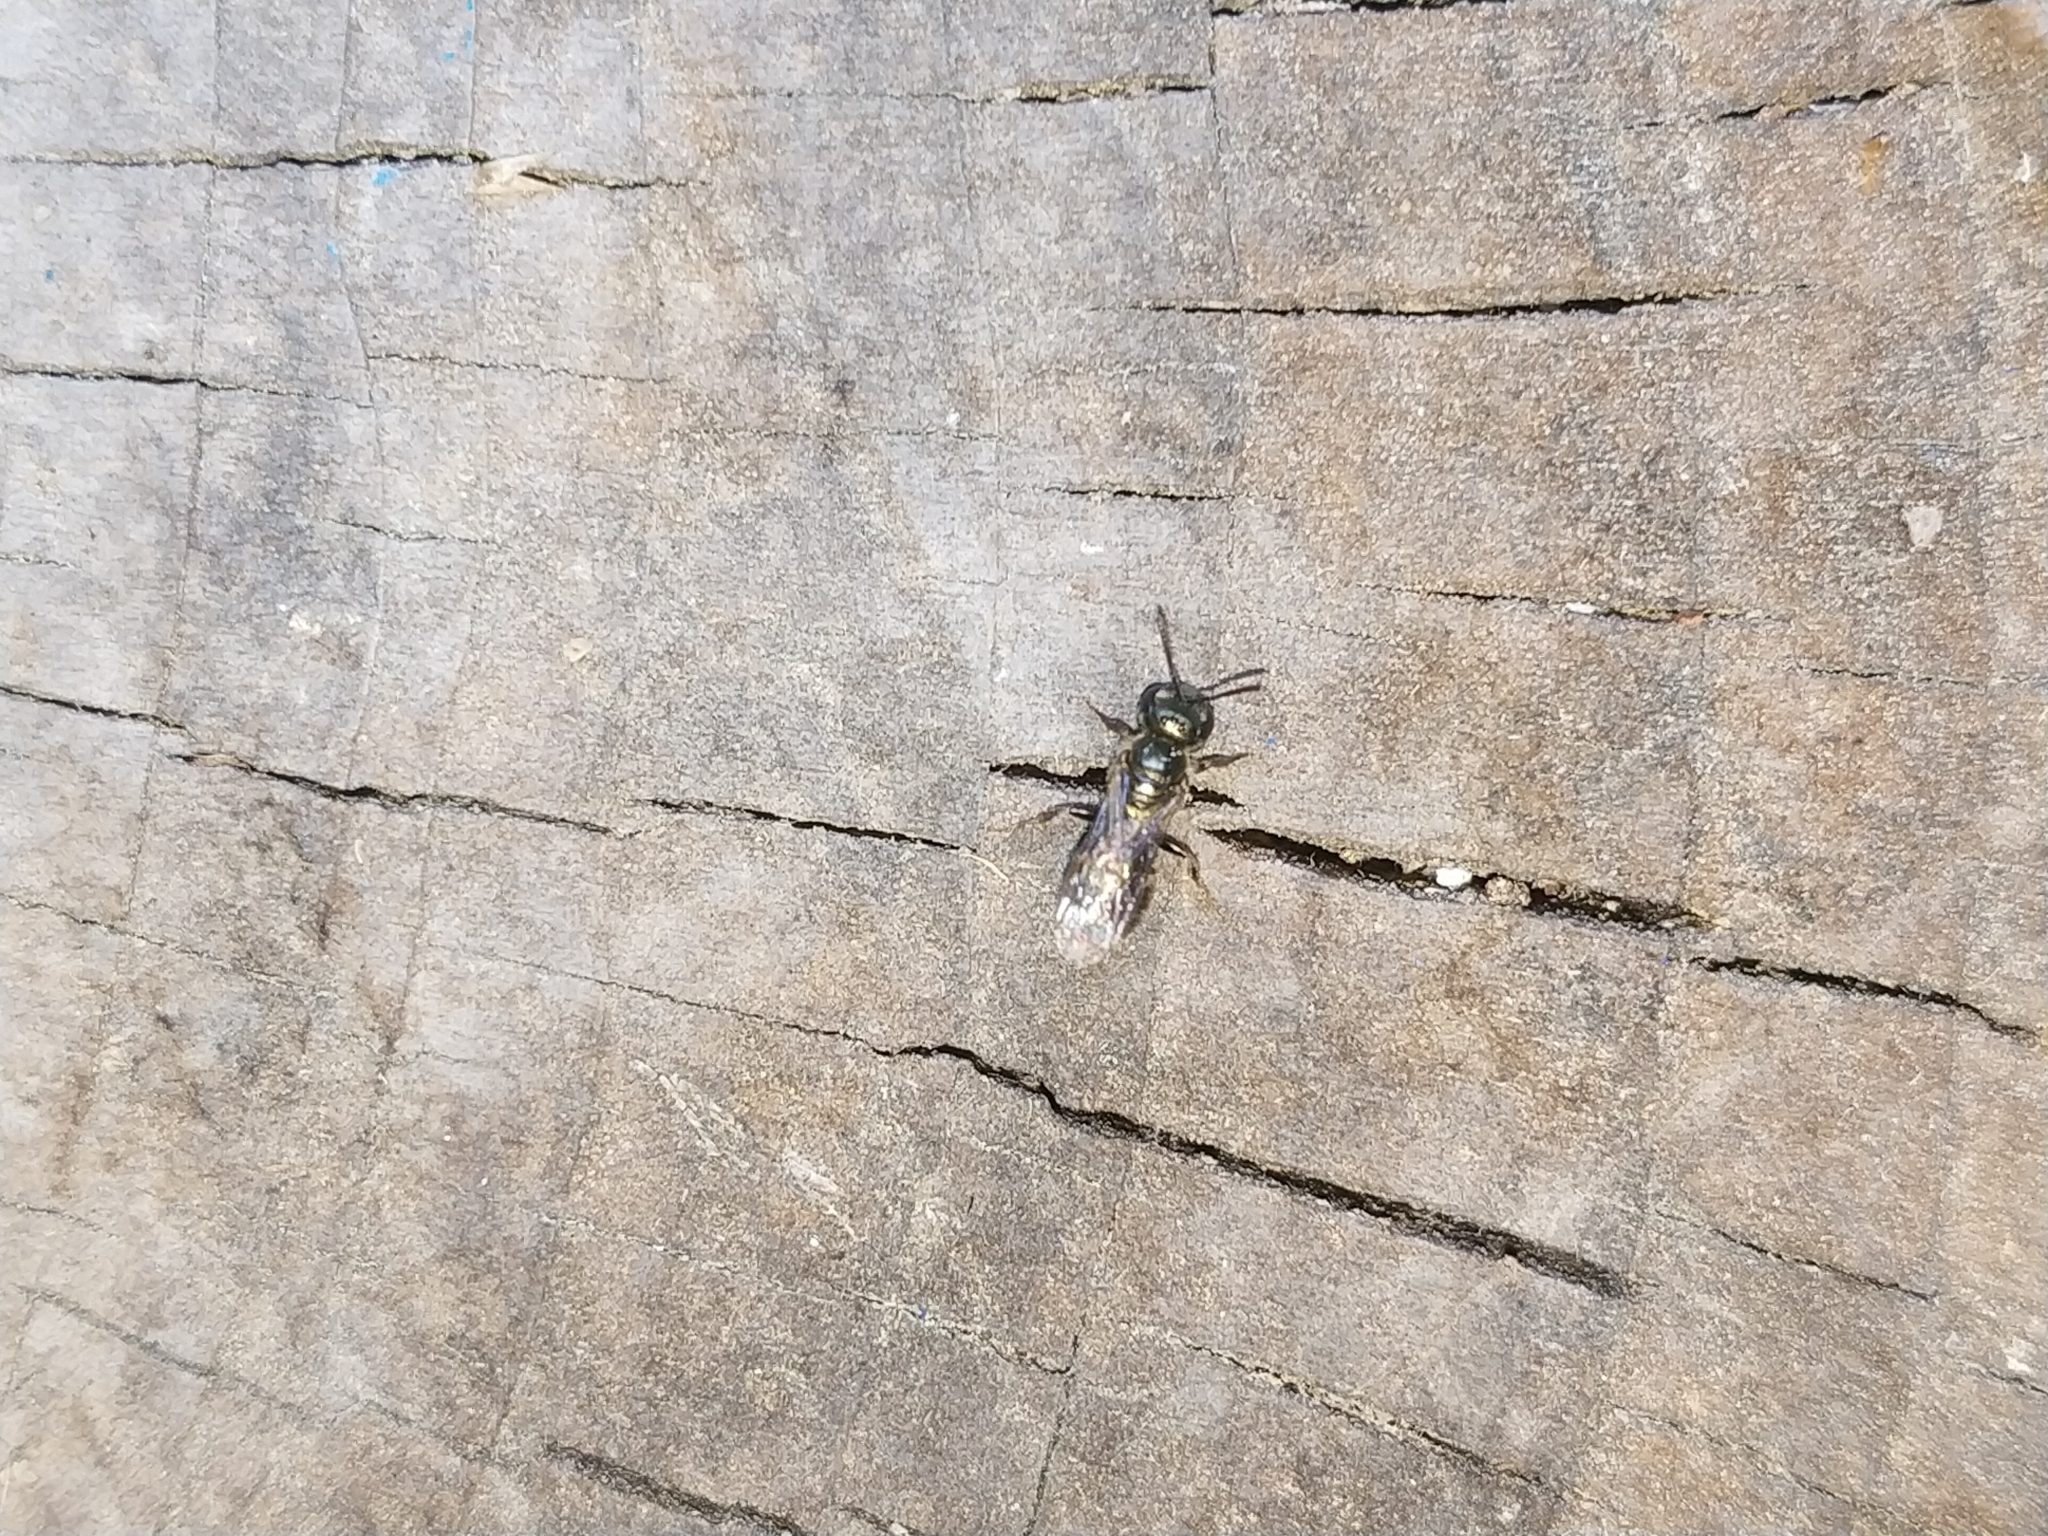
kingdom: Animalia
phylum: Arthropoda
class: Insecta
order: Hymenoptera
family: Halictidae
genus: Lasioglossum
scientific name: Lasioglossum zephyrum
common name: Zephyr sweat bee
